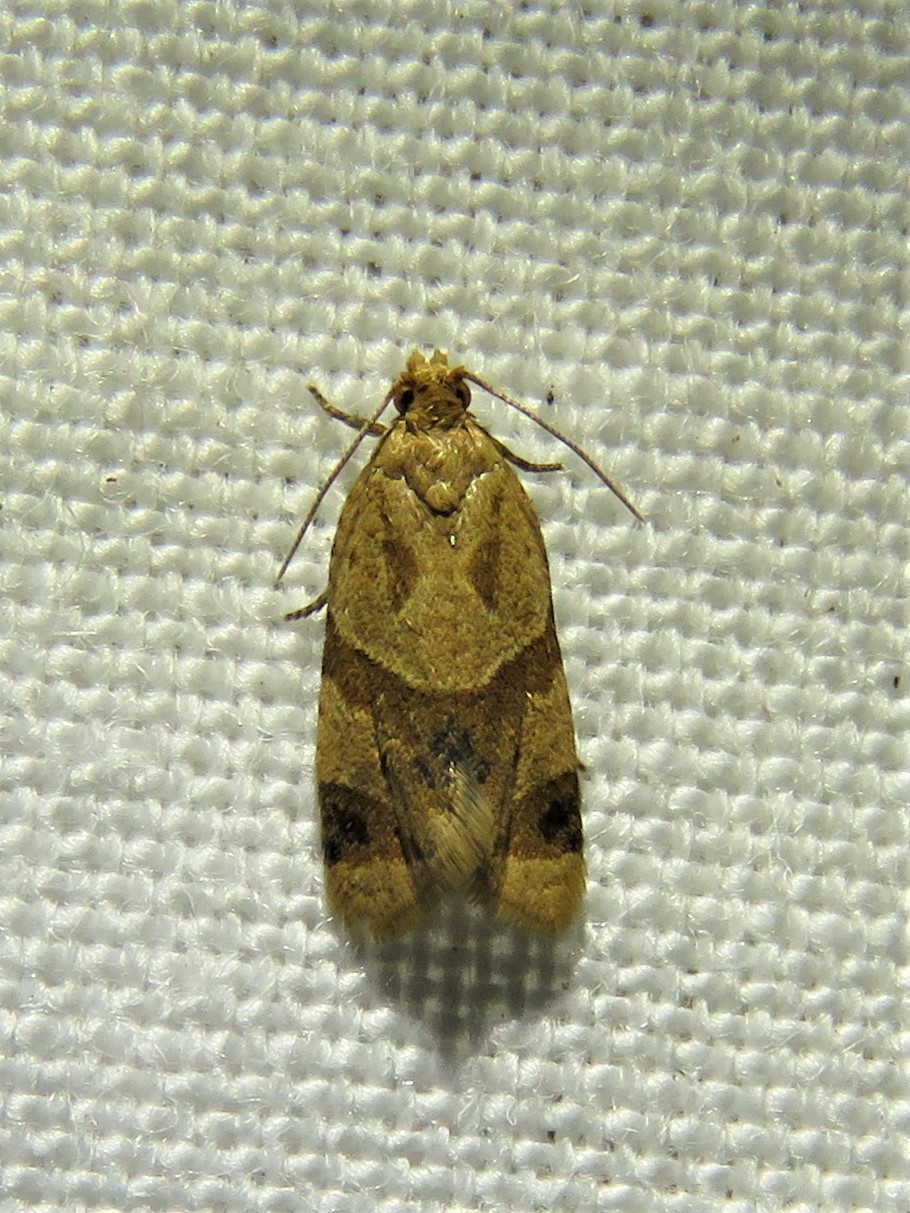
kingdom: Animalia
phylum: Arthropoda
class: Insecta
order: Lepidoptera
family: Tortricidae
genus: Clepsis
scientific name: Clepsis peritana
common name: Garden tortrix
